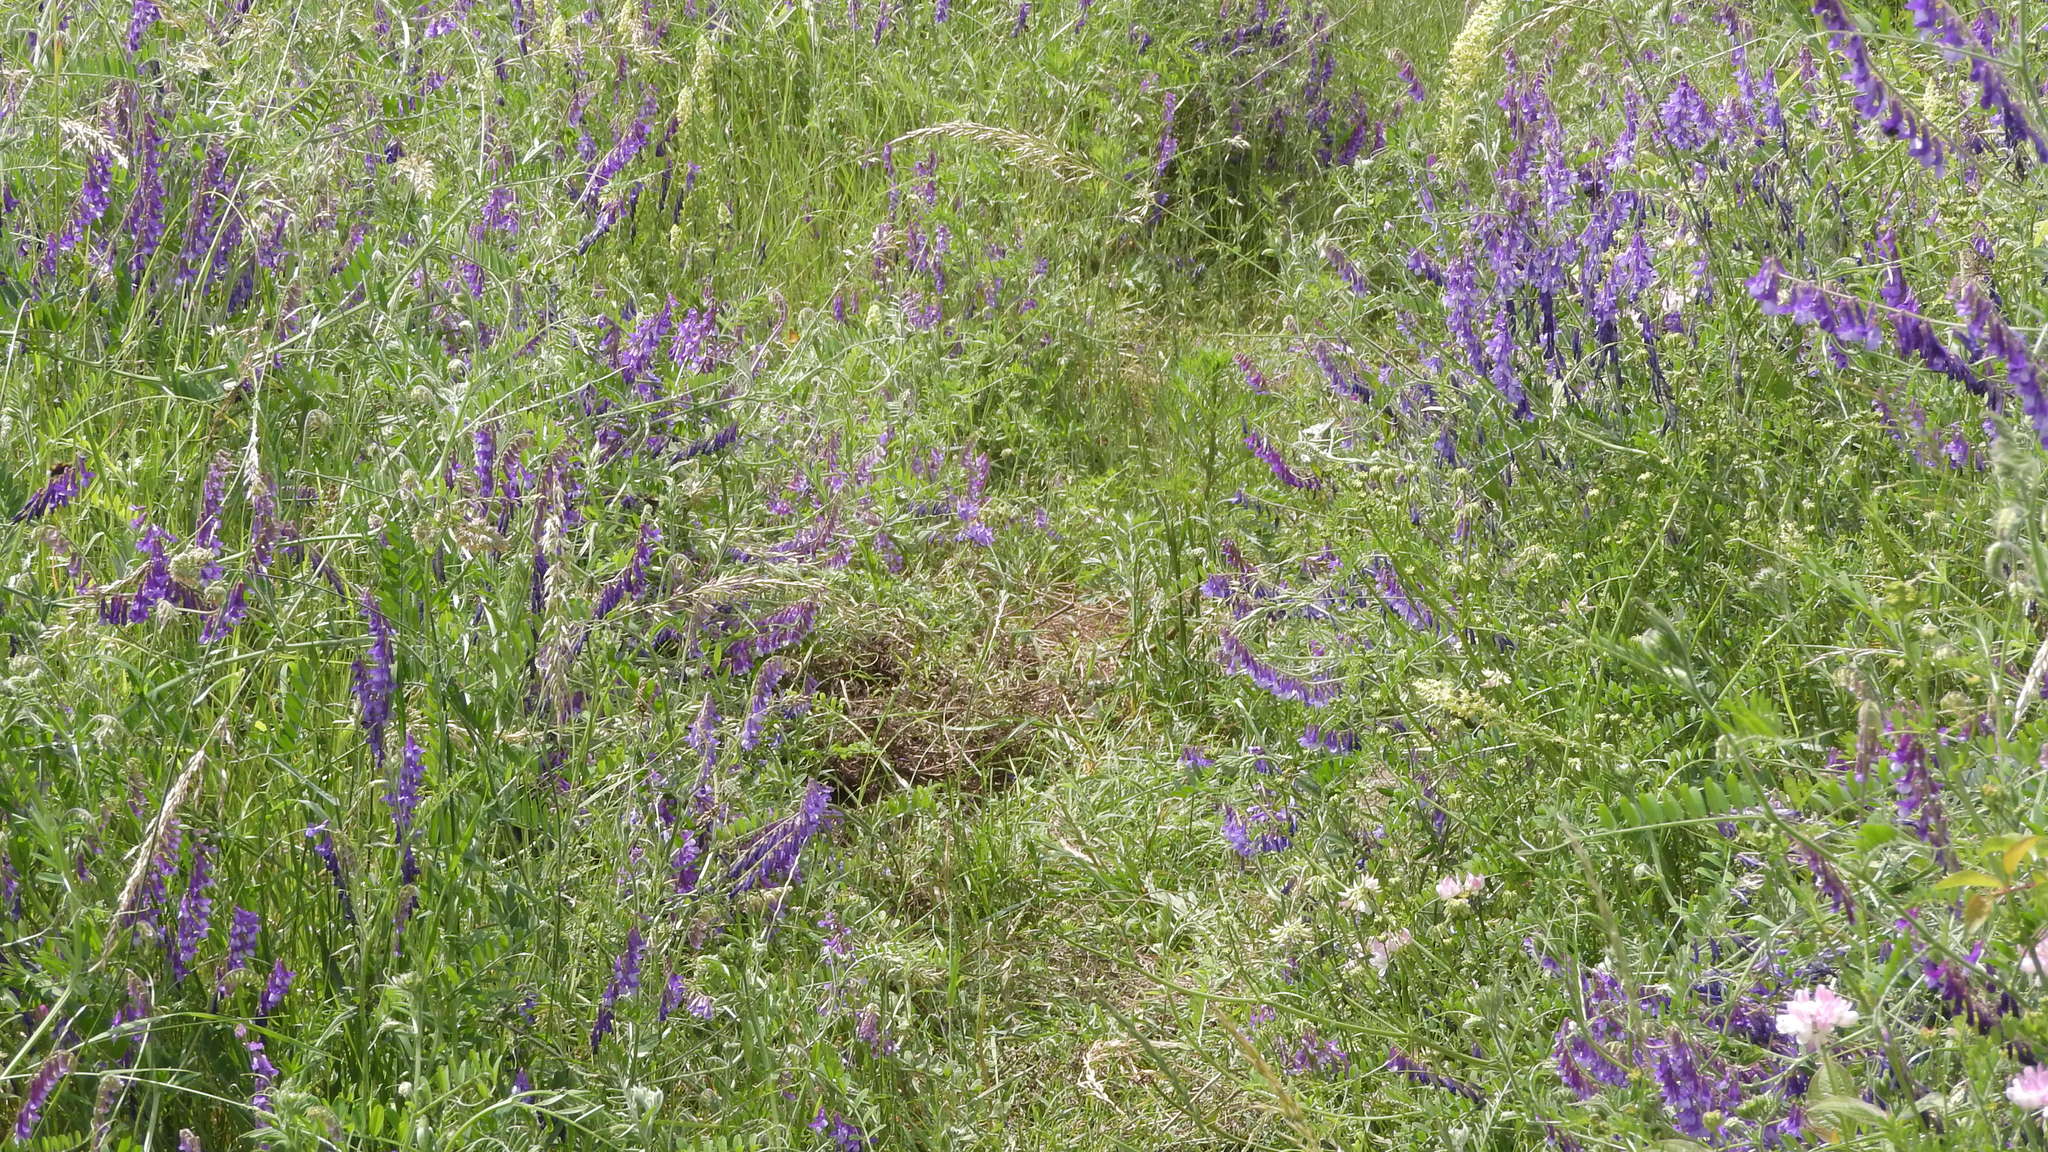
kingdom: Plantae
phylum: Tracheophyta
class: Magnoliopsida
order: Fabales
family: Fabaceae
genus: Vicia
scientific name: Vicia villosa
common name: Fodder vetch
